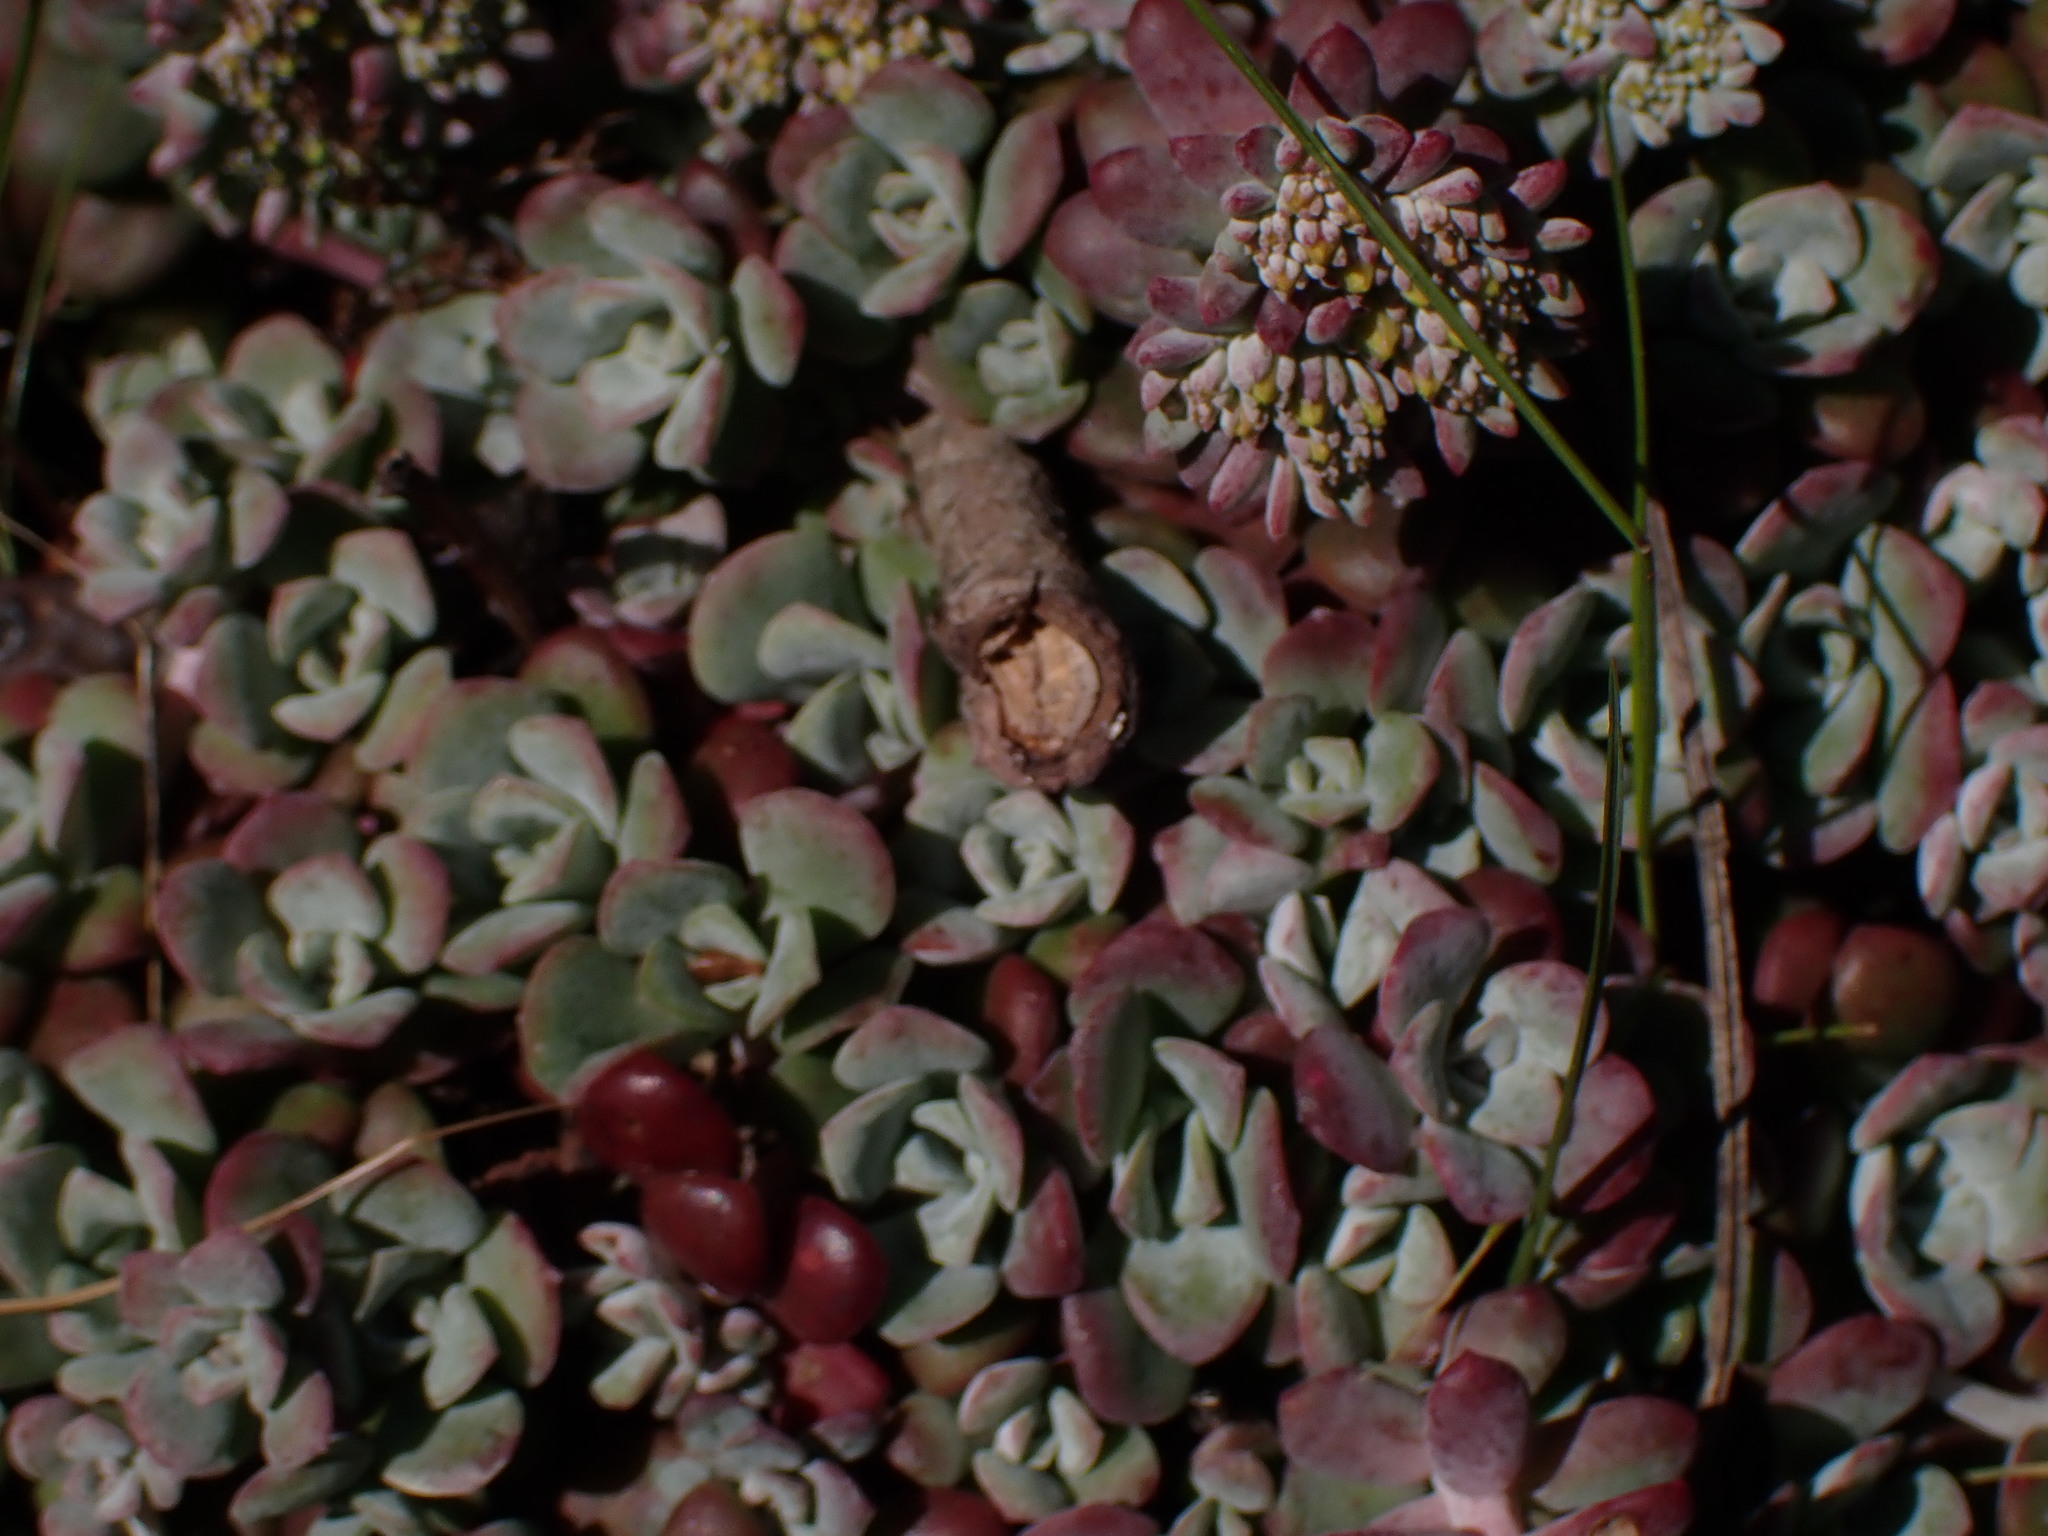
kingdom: Plantae
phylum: Tracheophyta
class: Magnoliopsida
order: Saxifragales
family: Crassulaceae
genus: Sedum
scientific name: Sedum spathulifolium
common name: Colorado stonecrop
